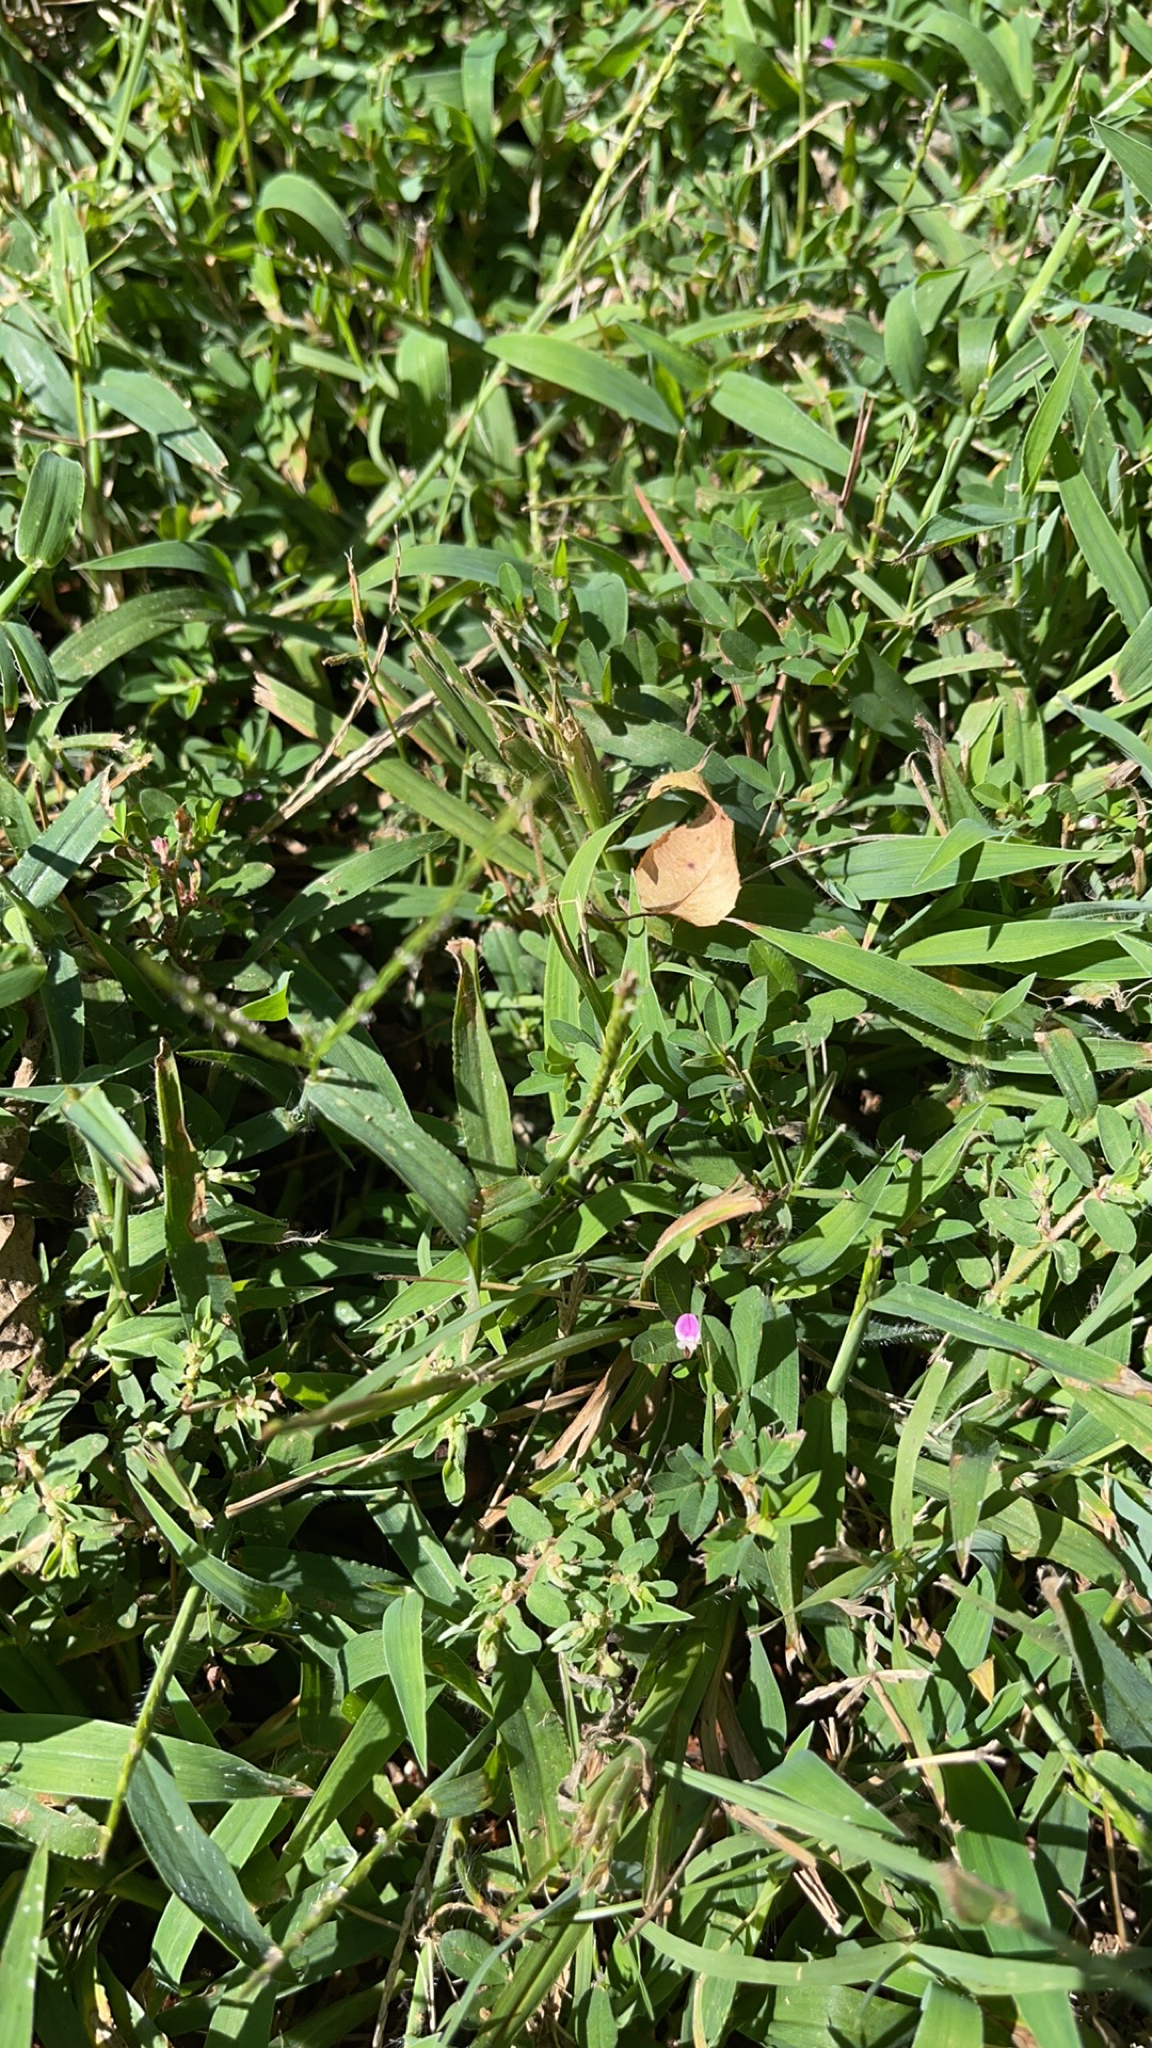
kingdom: Plantae
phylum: Tracheophyta
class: Magnoliopsida
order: Fabales
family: Fabaceae
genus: Kummerowia
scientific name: Kummerowia striata
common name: Japanese clover
